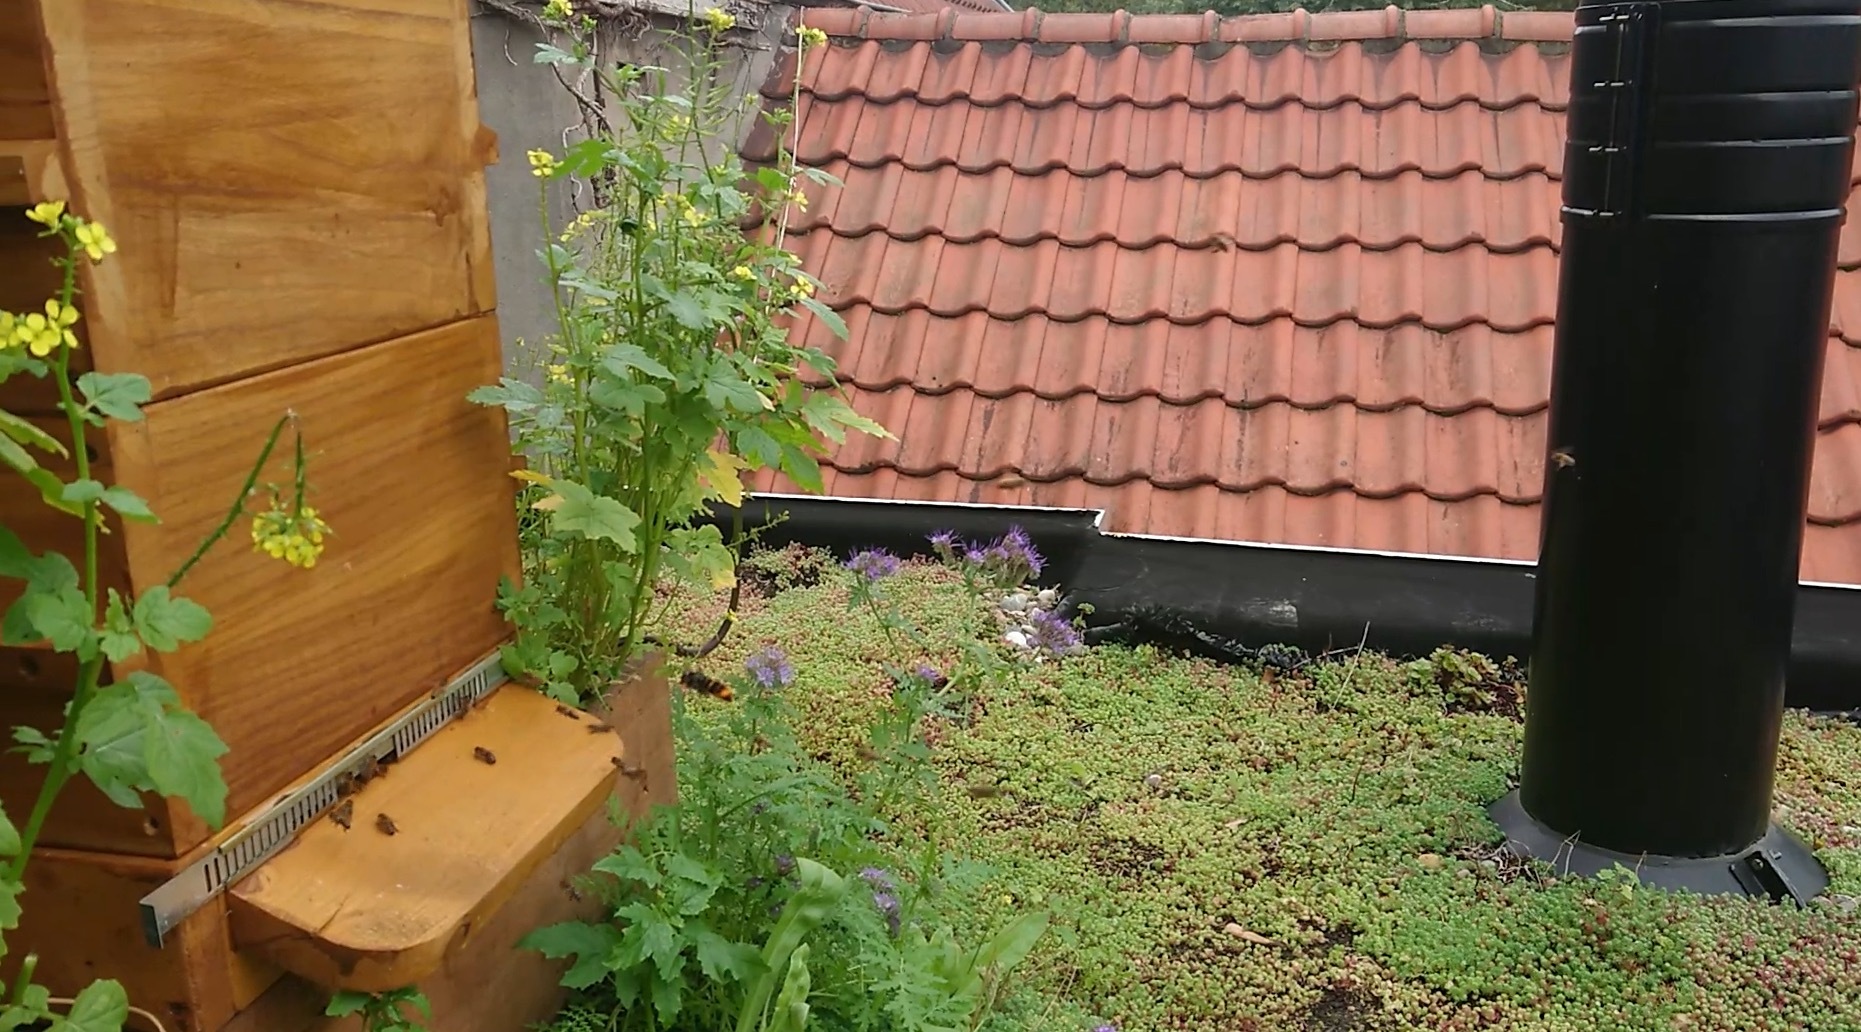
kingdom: Animalia
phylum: Arthropoda
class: Insecta
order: Hymenoptera
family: Vespidae
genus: Vespa
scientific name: Vespa velutina
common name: Asian hornet
